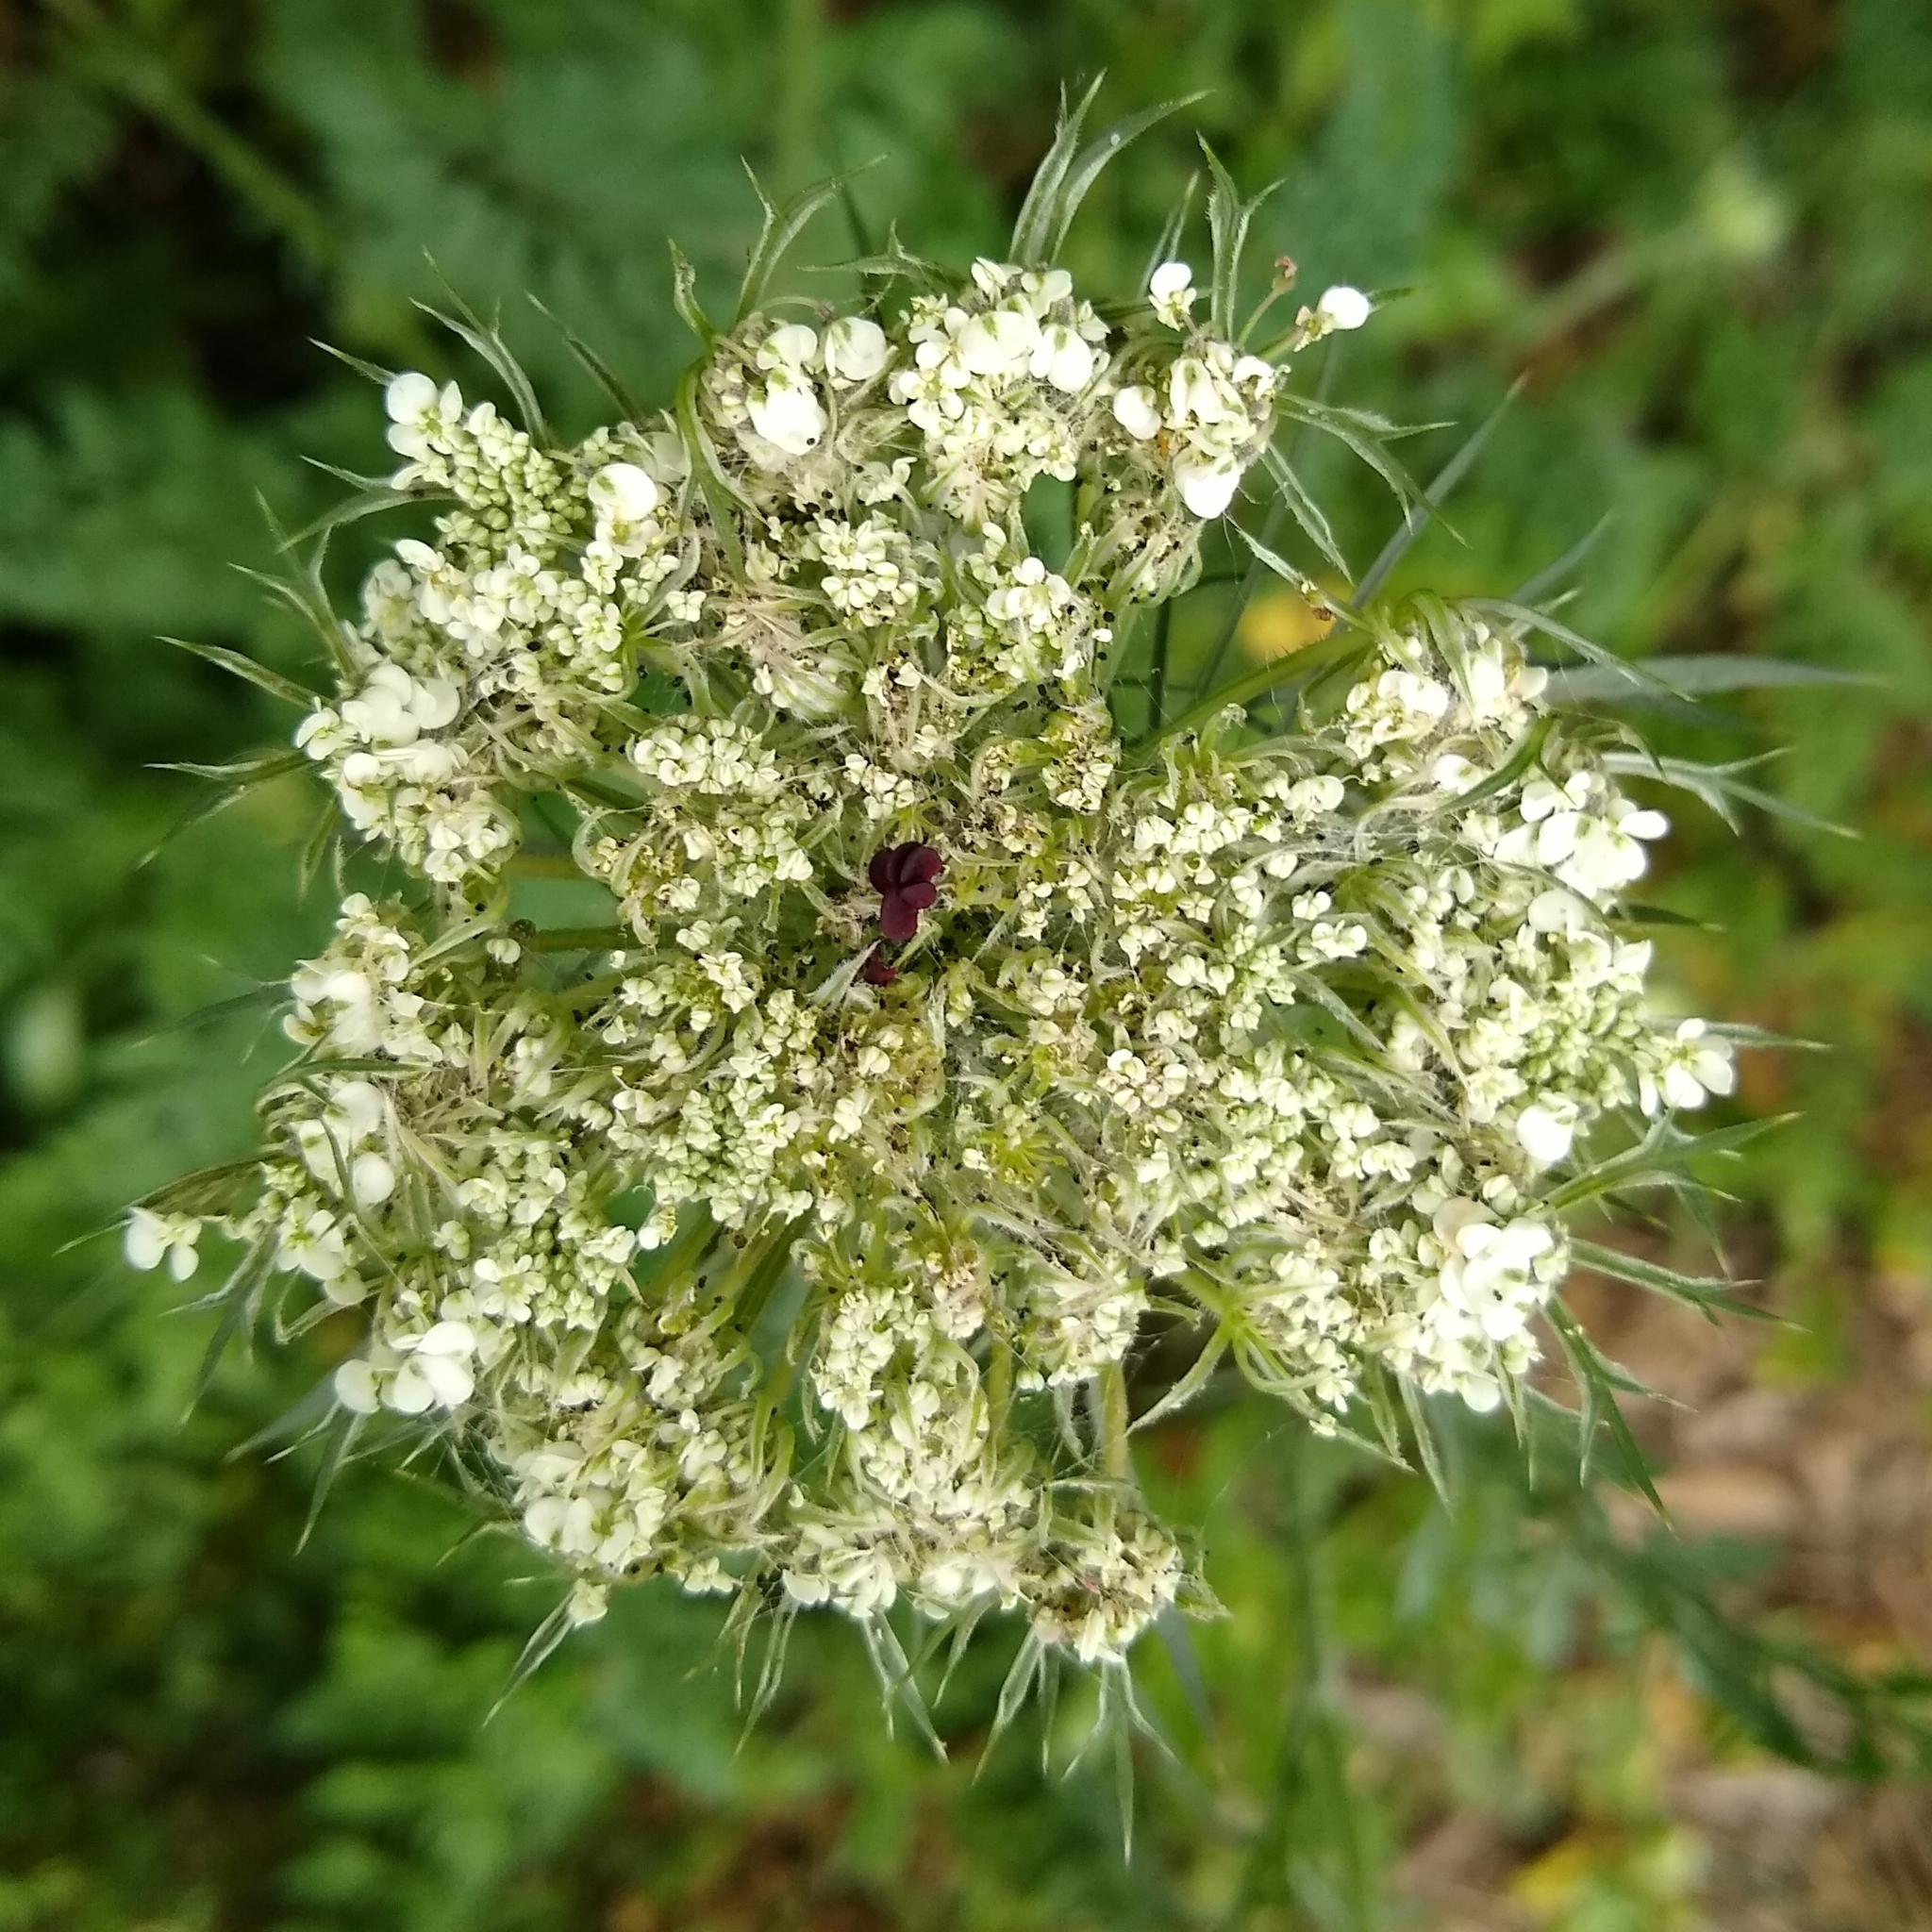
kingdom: Plantae
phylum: Tracheophyta
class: Magnoliopsida
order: Apiales
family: Apiaceae
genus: Daucus
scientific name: Daucus carota
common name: Wild carrot
